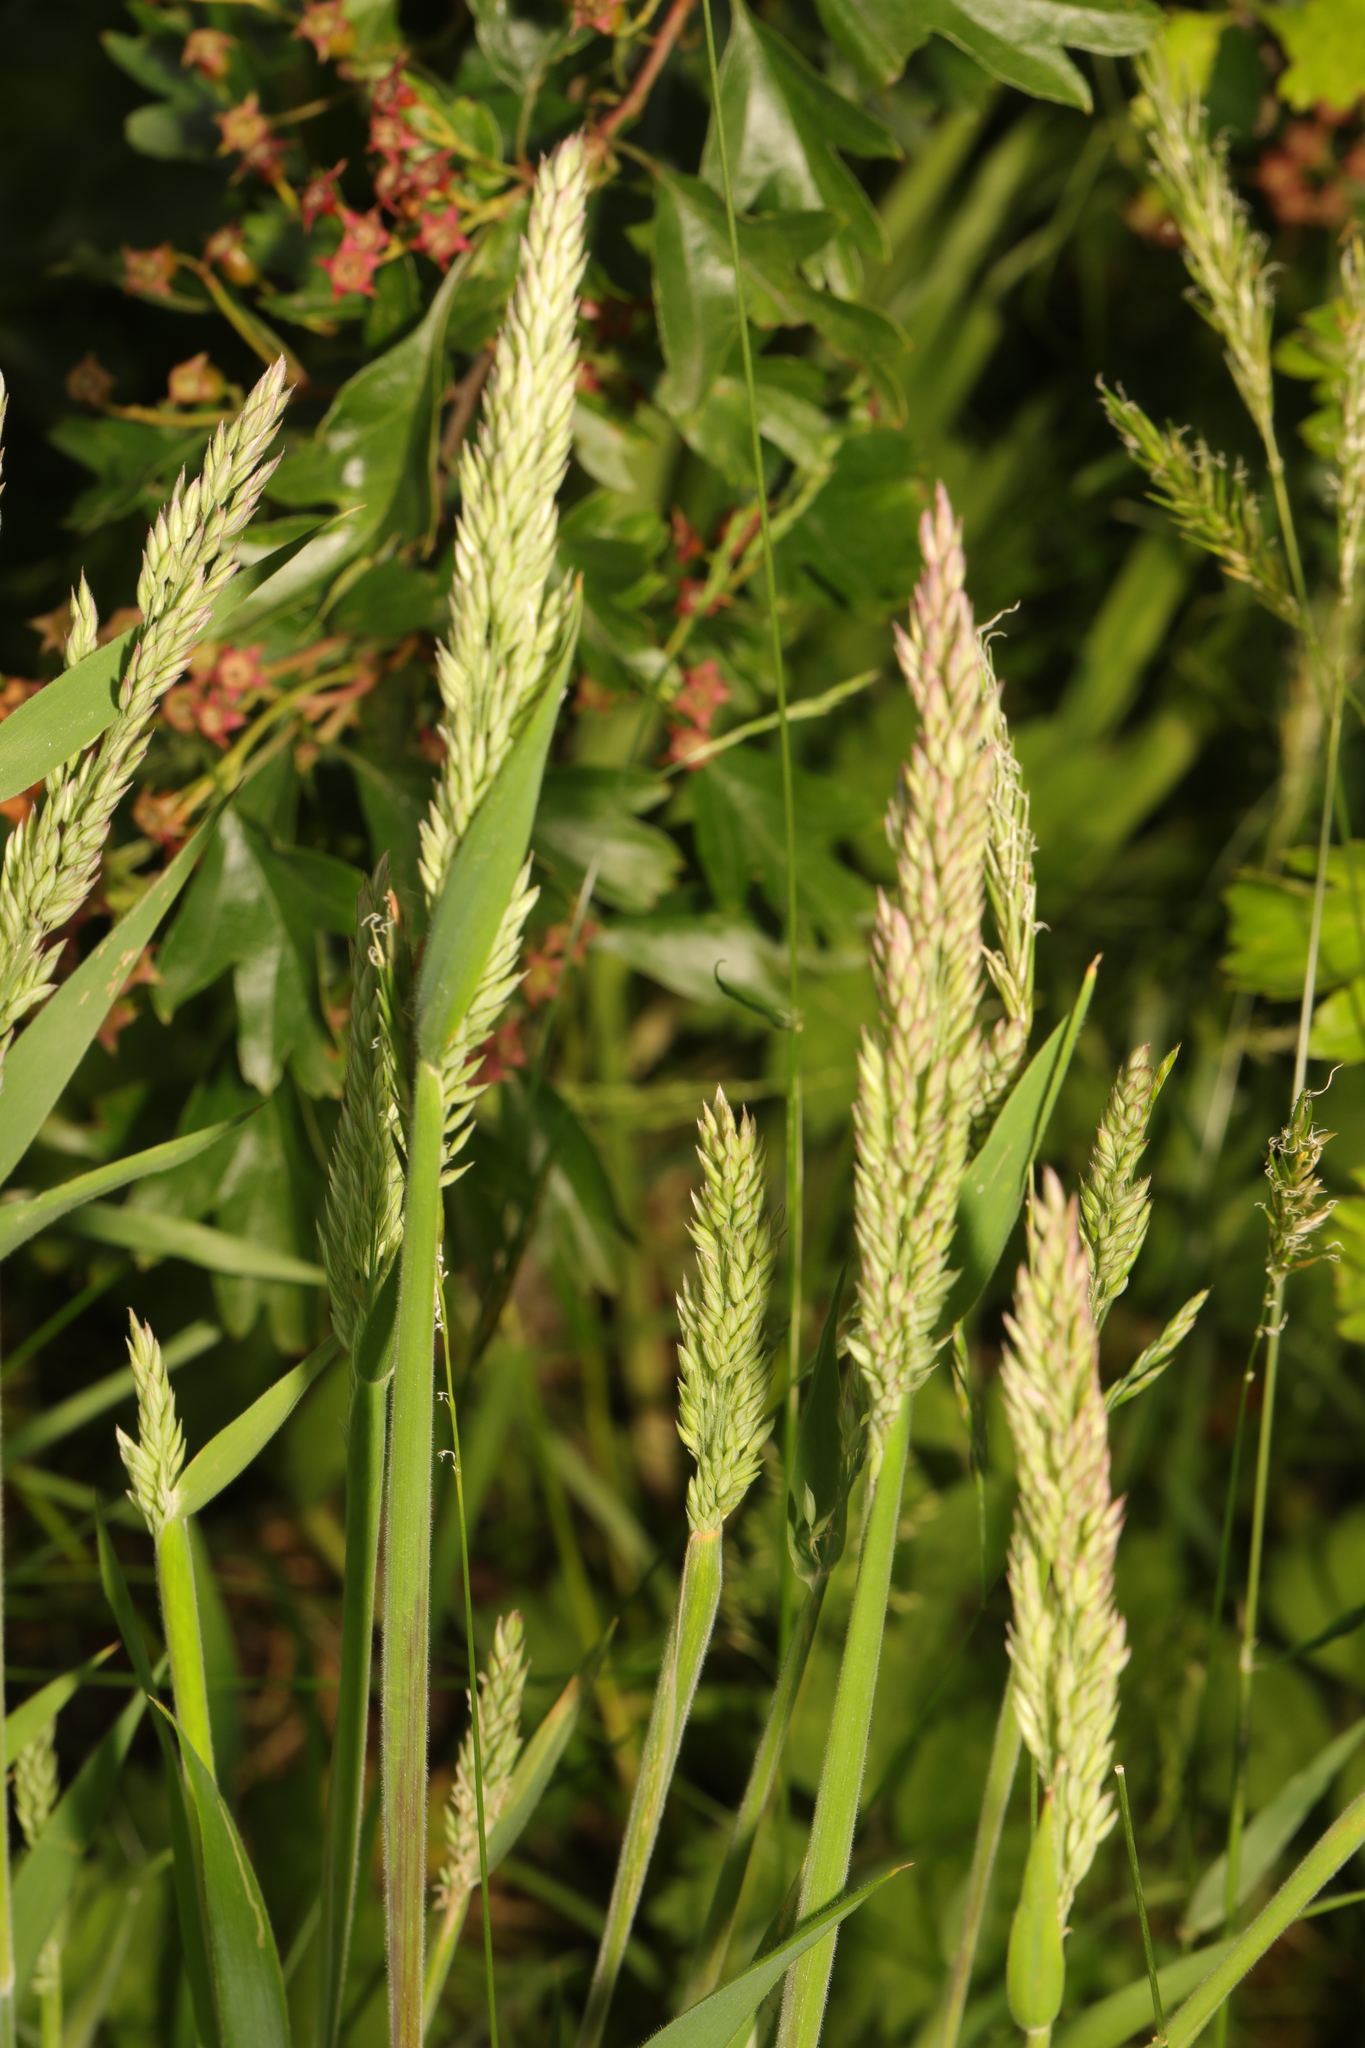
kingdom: Plantae
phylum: Tracheophyta
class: Liliopsida
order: Poales
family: Poaceae
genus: Holcus
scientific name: Holcus lanatus
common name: Yorkshire-fog
